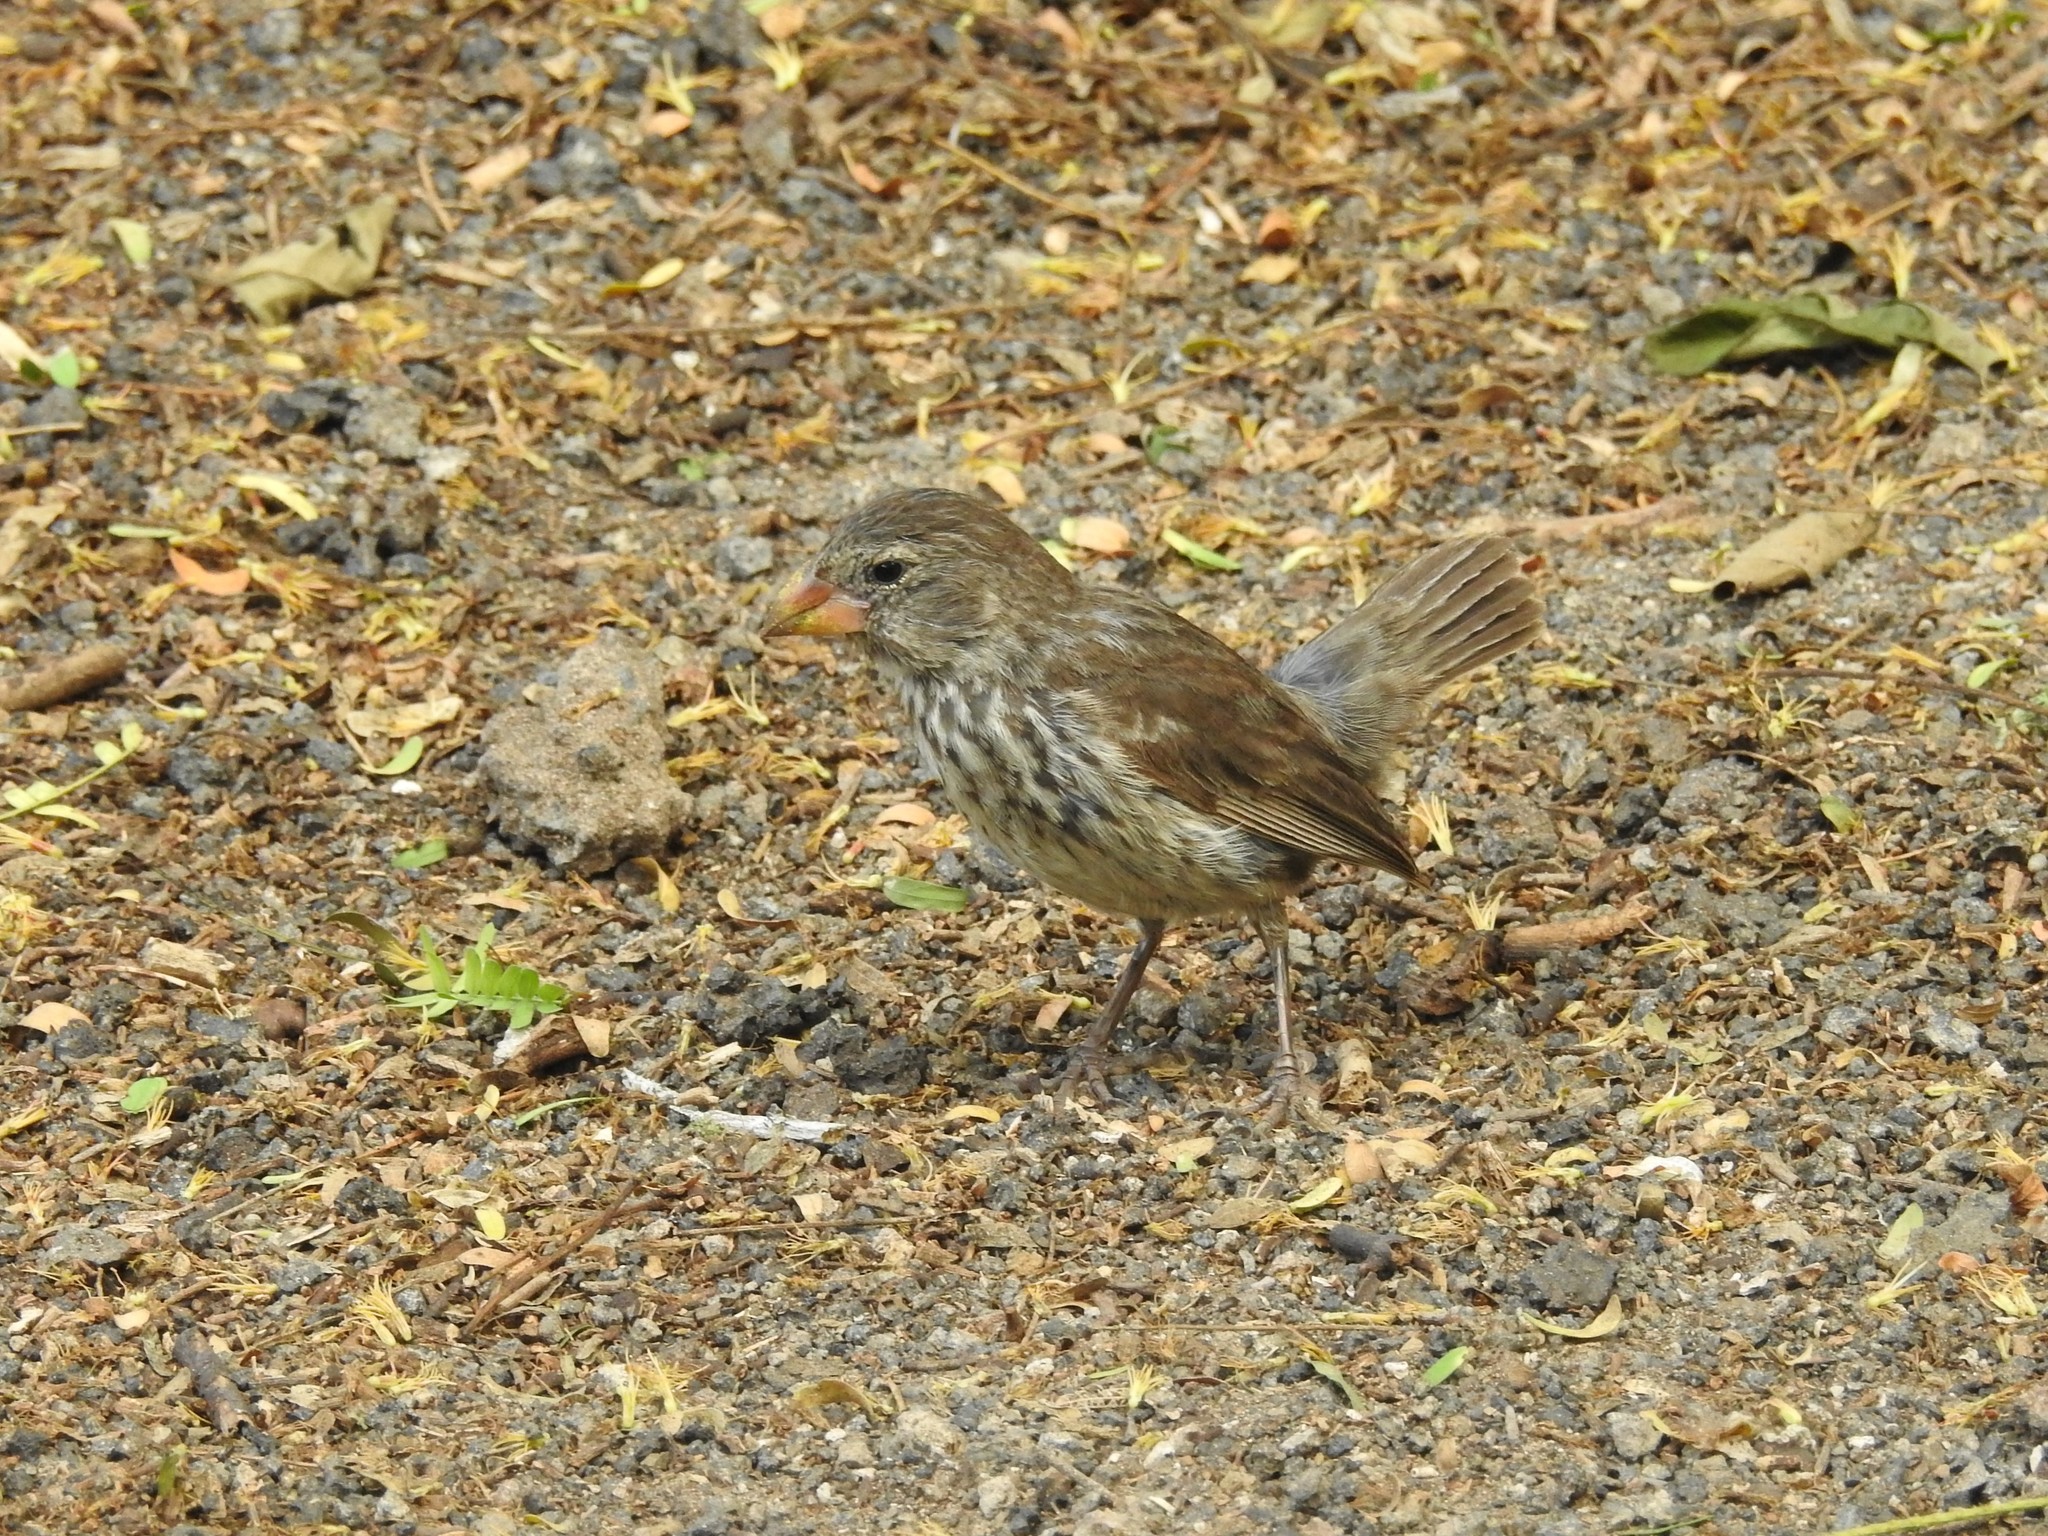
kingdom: Animalia
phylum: Chordata
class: Aves
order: Passeriformes
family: Thraupidae
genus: Geospiza
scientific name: Geospiza fortis
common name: Medium ground finch
